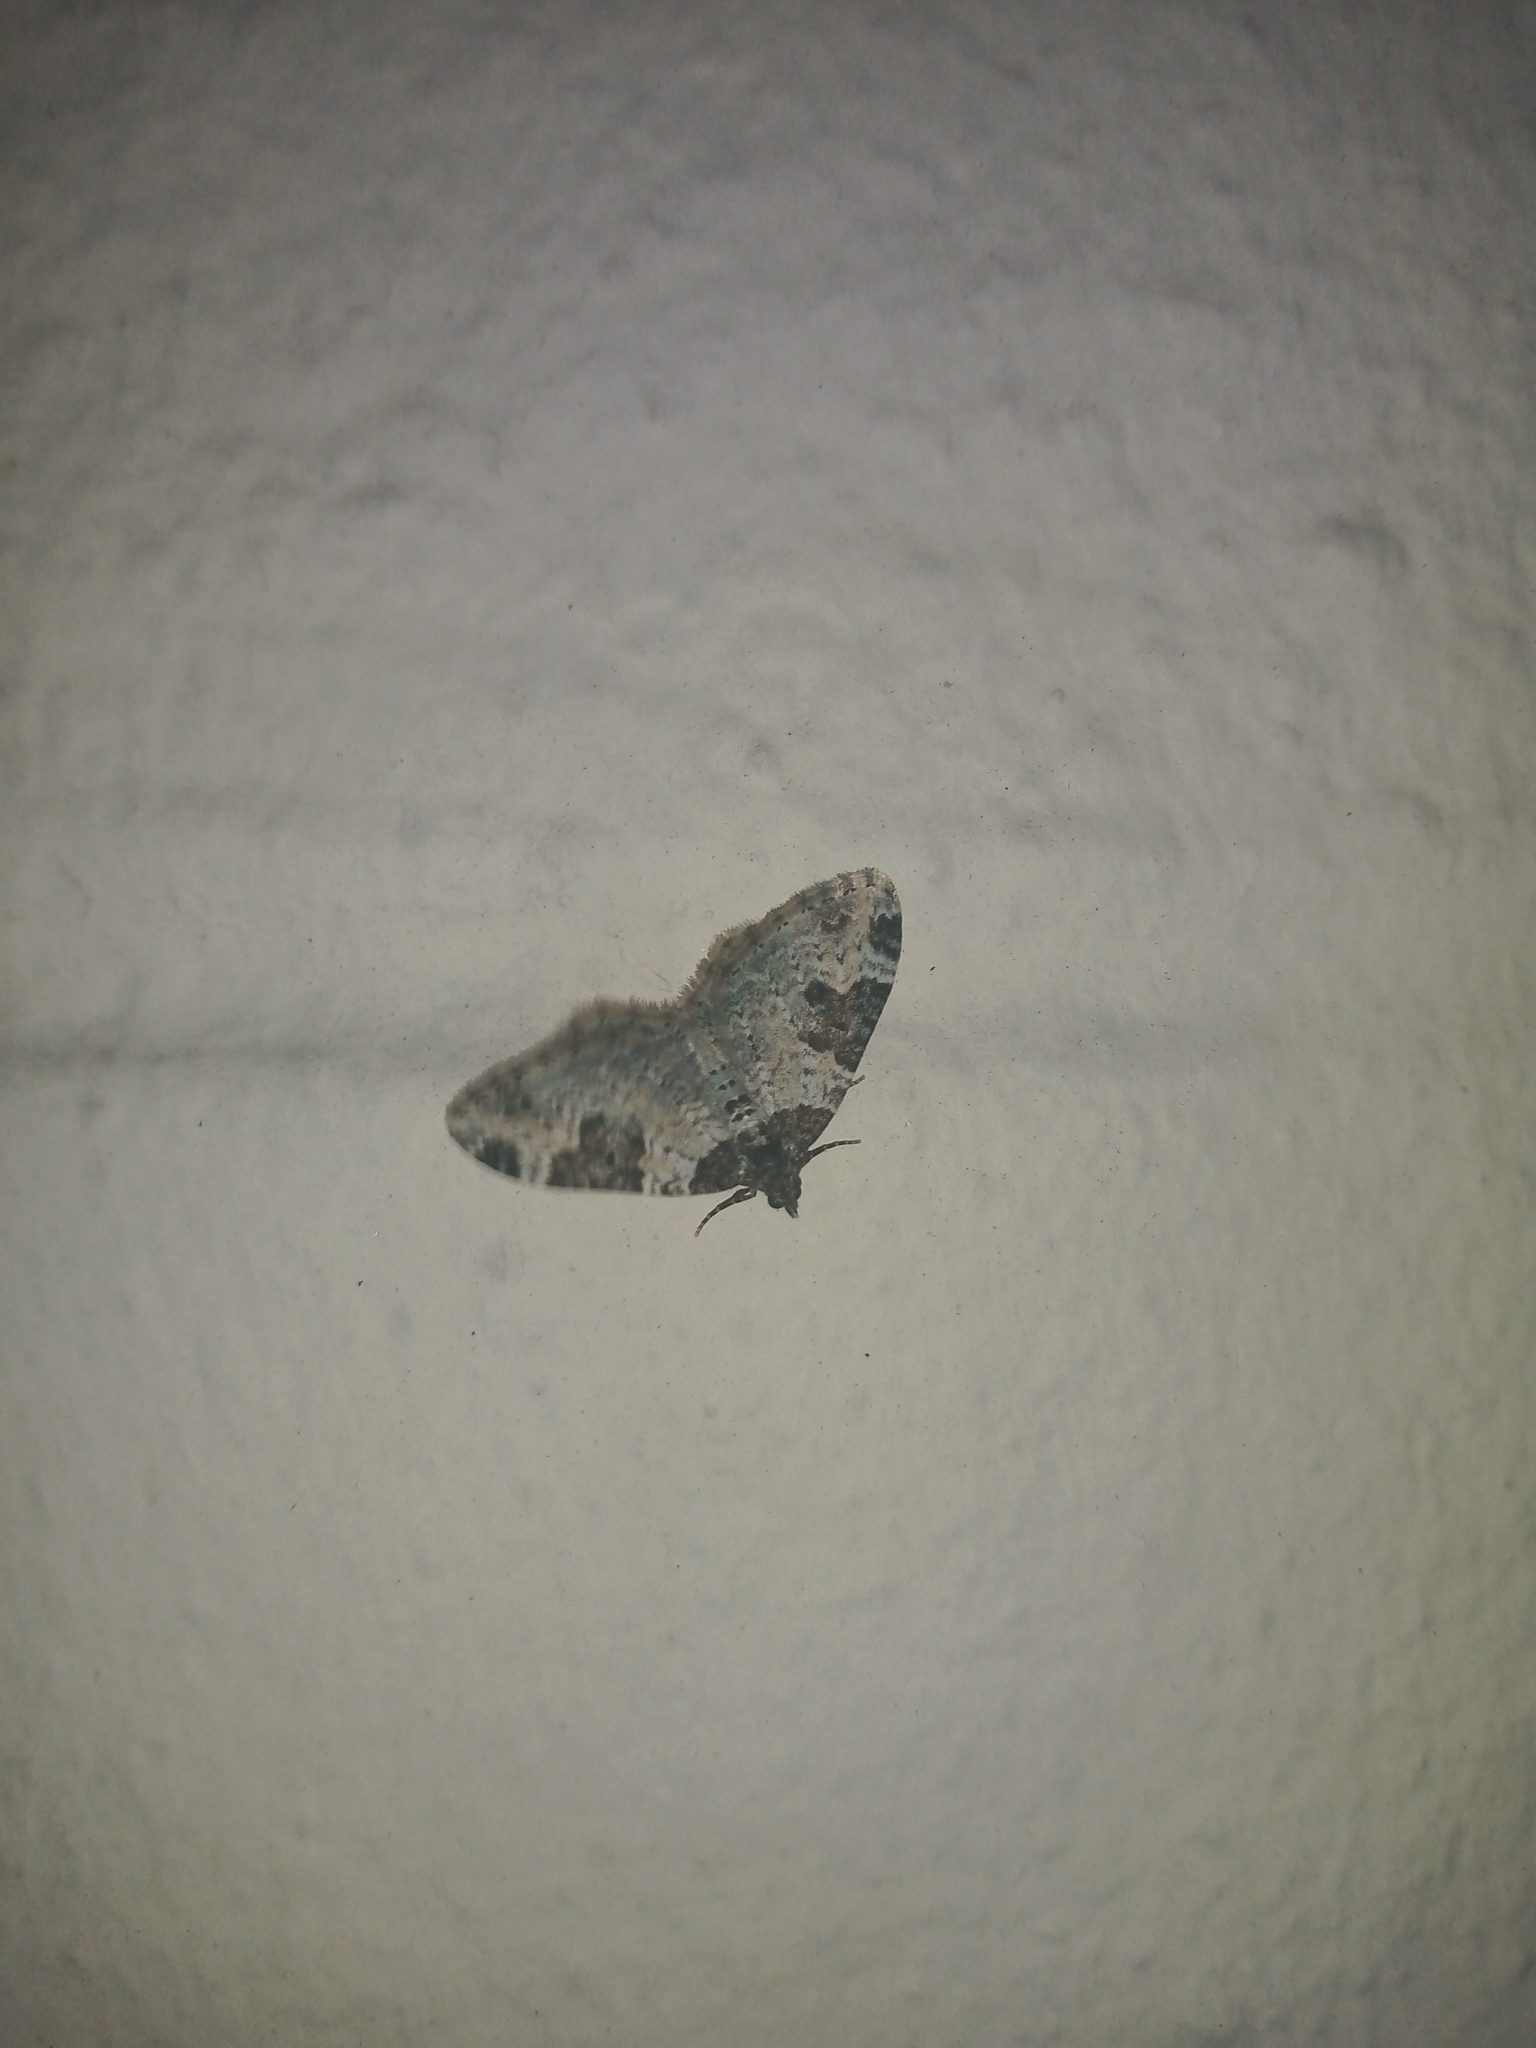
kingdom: Animalia
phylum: Arthropoda
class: Insecta
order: Lepidoptera
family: Geometridae
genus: Xanthorhoe
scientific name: Xanthorhoe fluctuata
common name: Garden carpet
